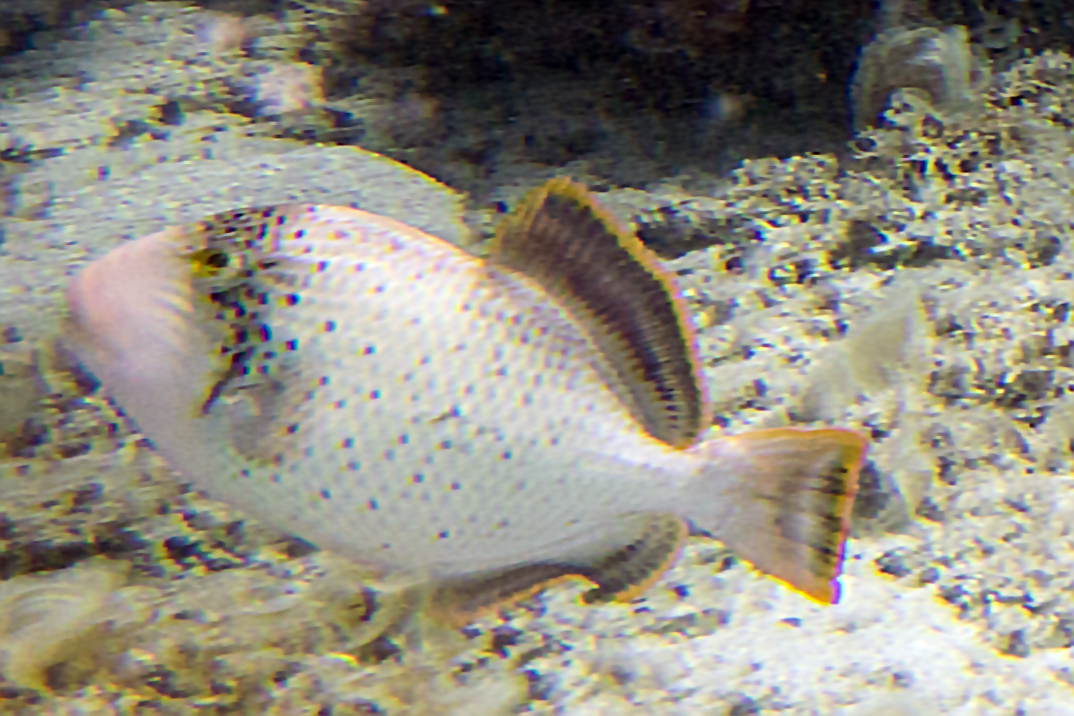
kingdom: Animalia
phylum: Chordata
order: Tetraodontiformes
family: Balistidae
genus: Pseudobalistes
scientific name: Pseudobalistes flavimarginatus
